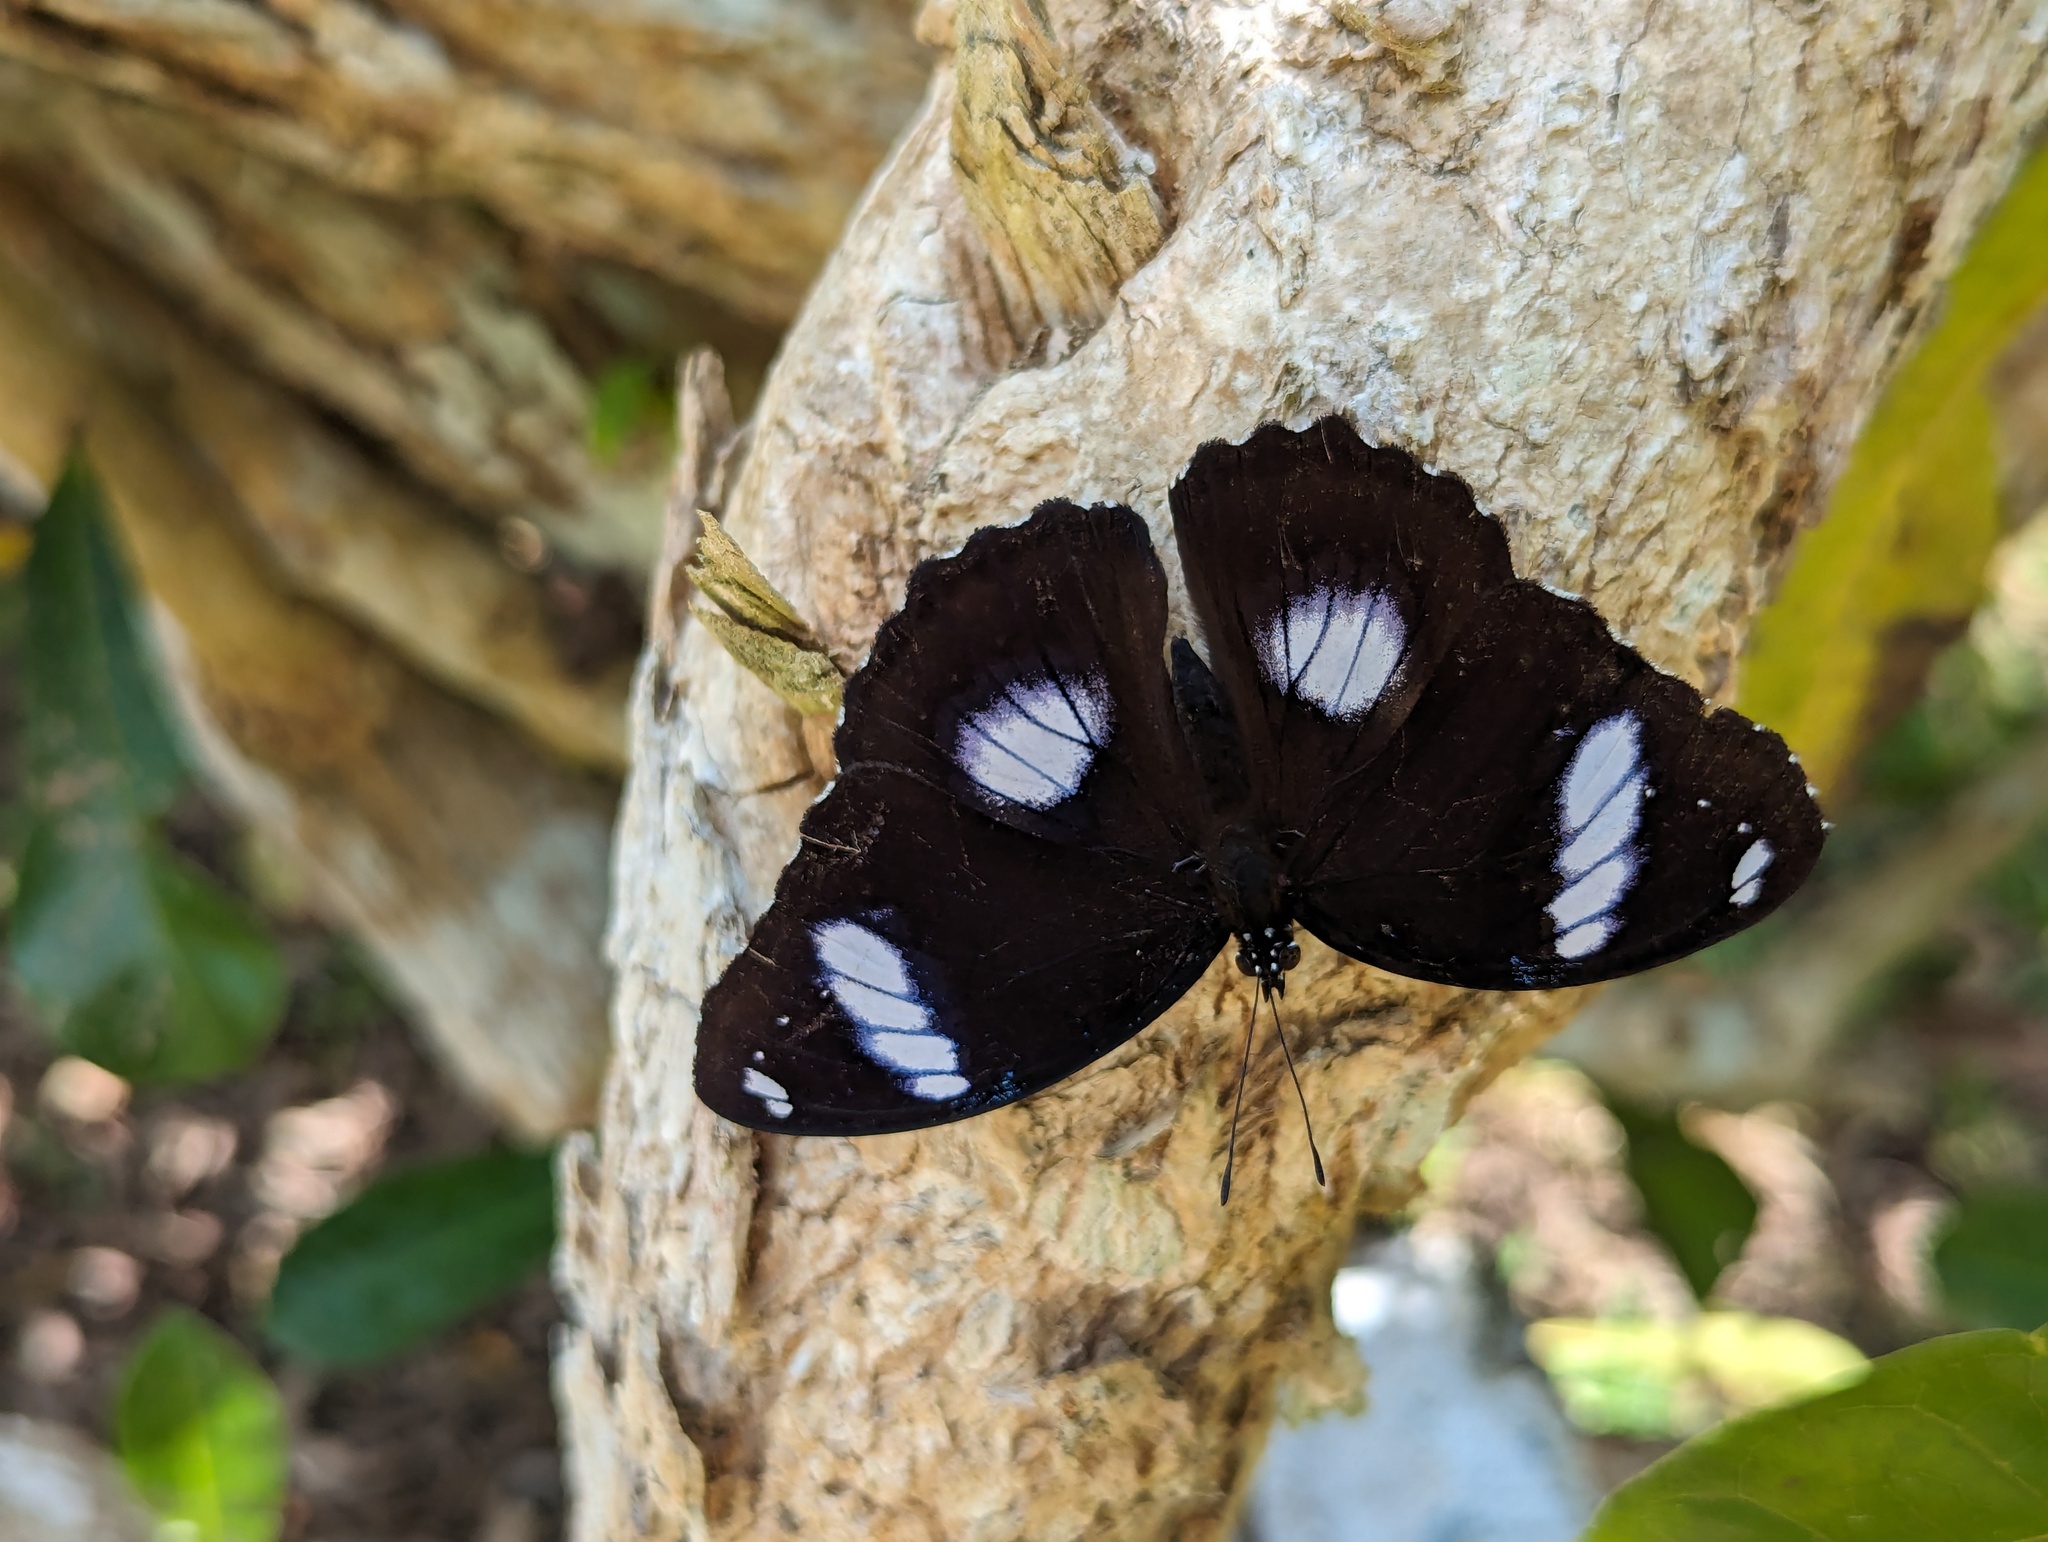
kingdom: Animalia
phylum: Arthropoda
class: Insecta
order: Lepidoptera
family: Nymphalidae
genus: Hypolimnas
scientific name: Hypolimnas bolina
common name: Great eggfly
